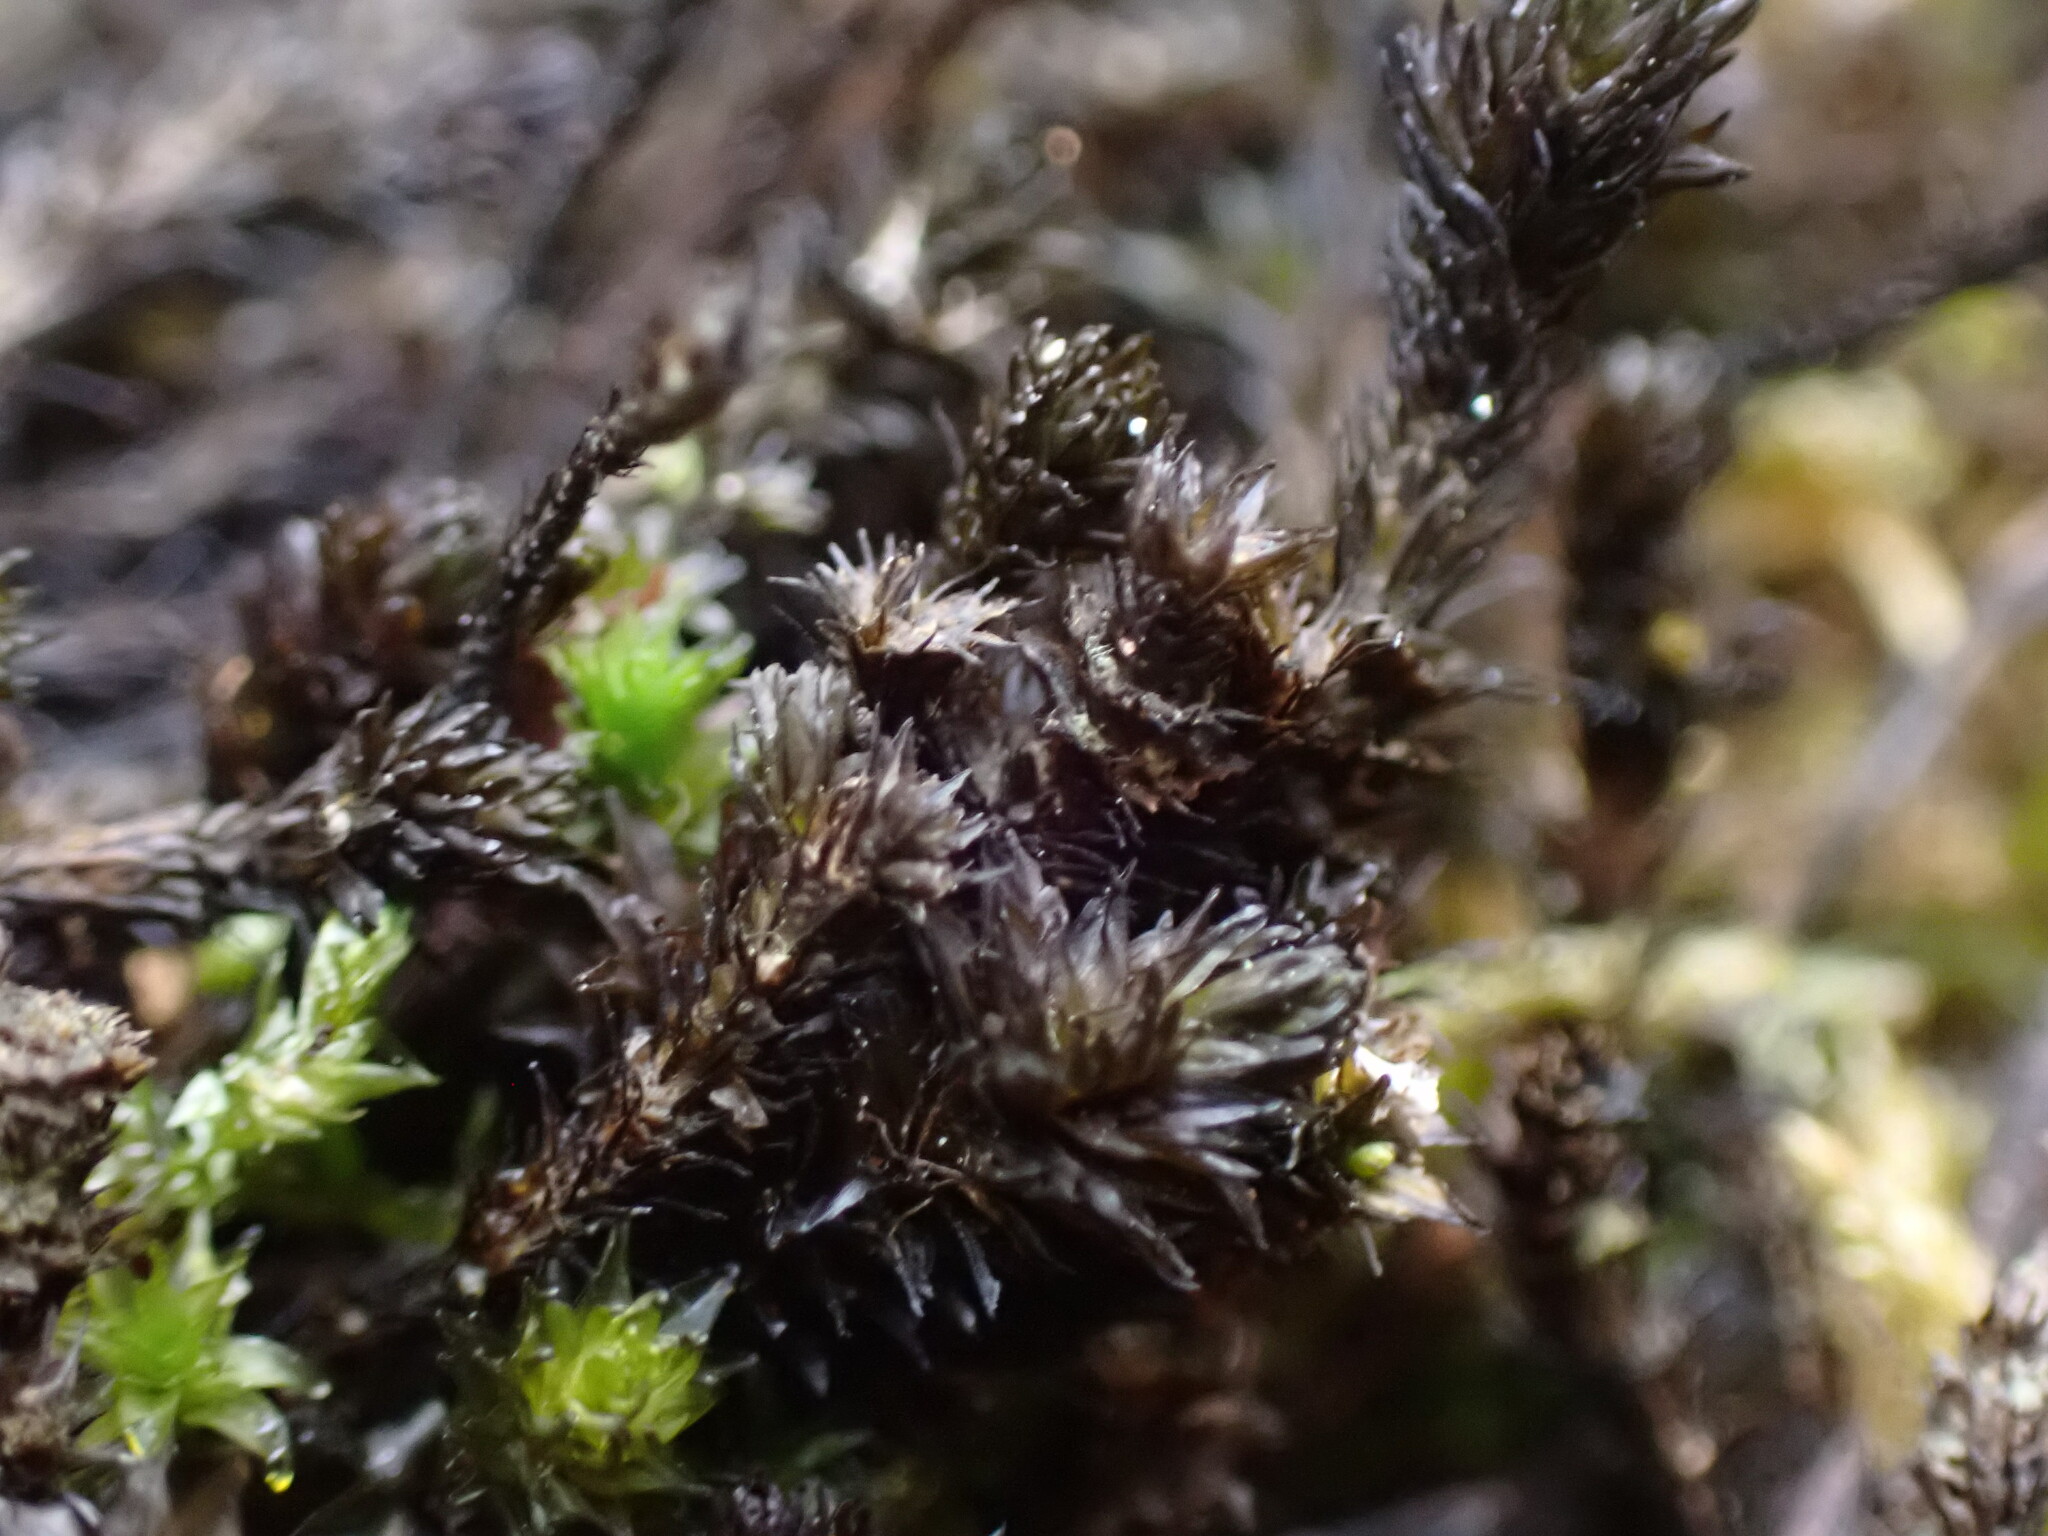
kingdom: Plantae
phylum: Bryophyta
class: Bryopsida
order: Scouleriales
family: Scouleriaceae
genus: Scouleria
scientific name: Scouleria aquatica
